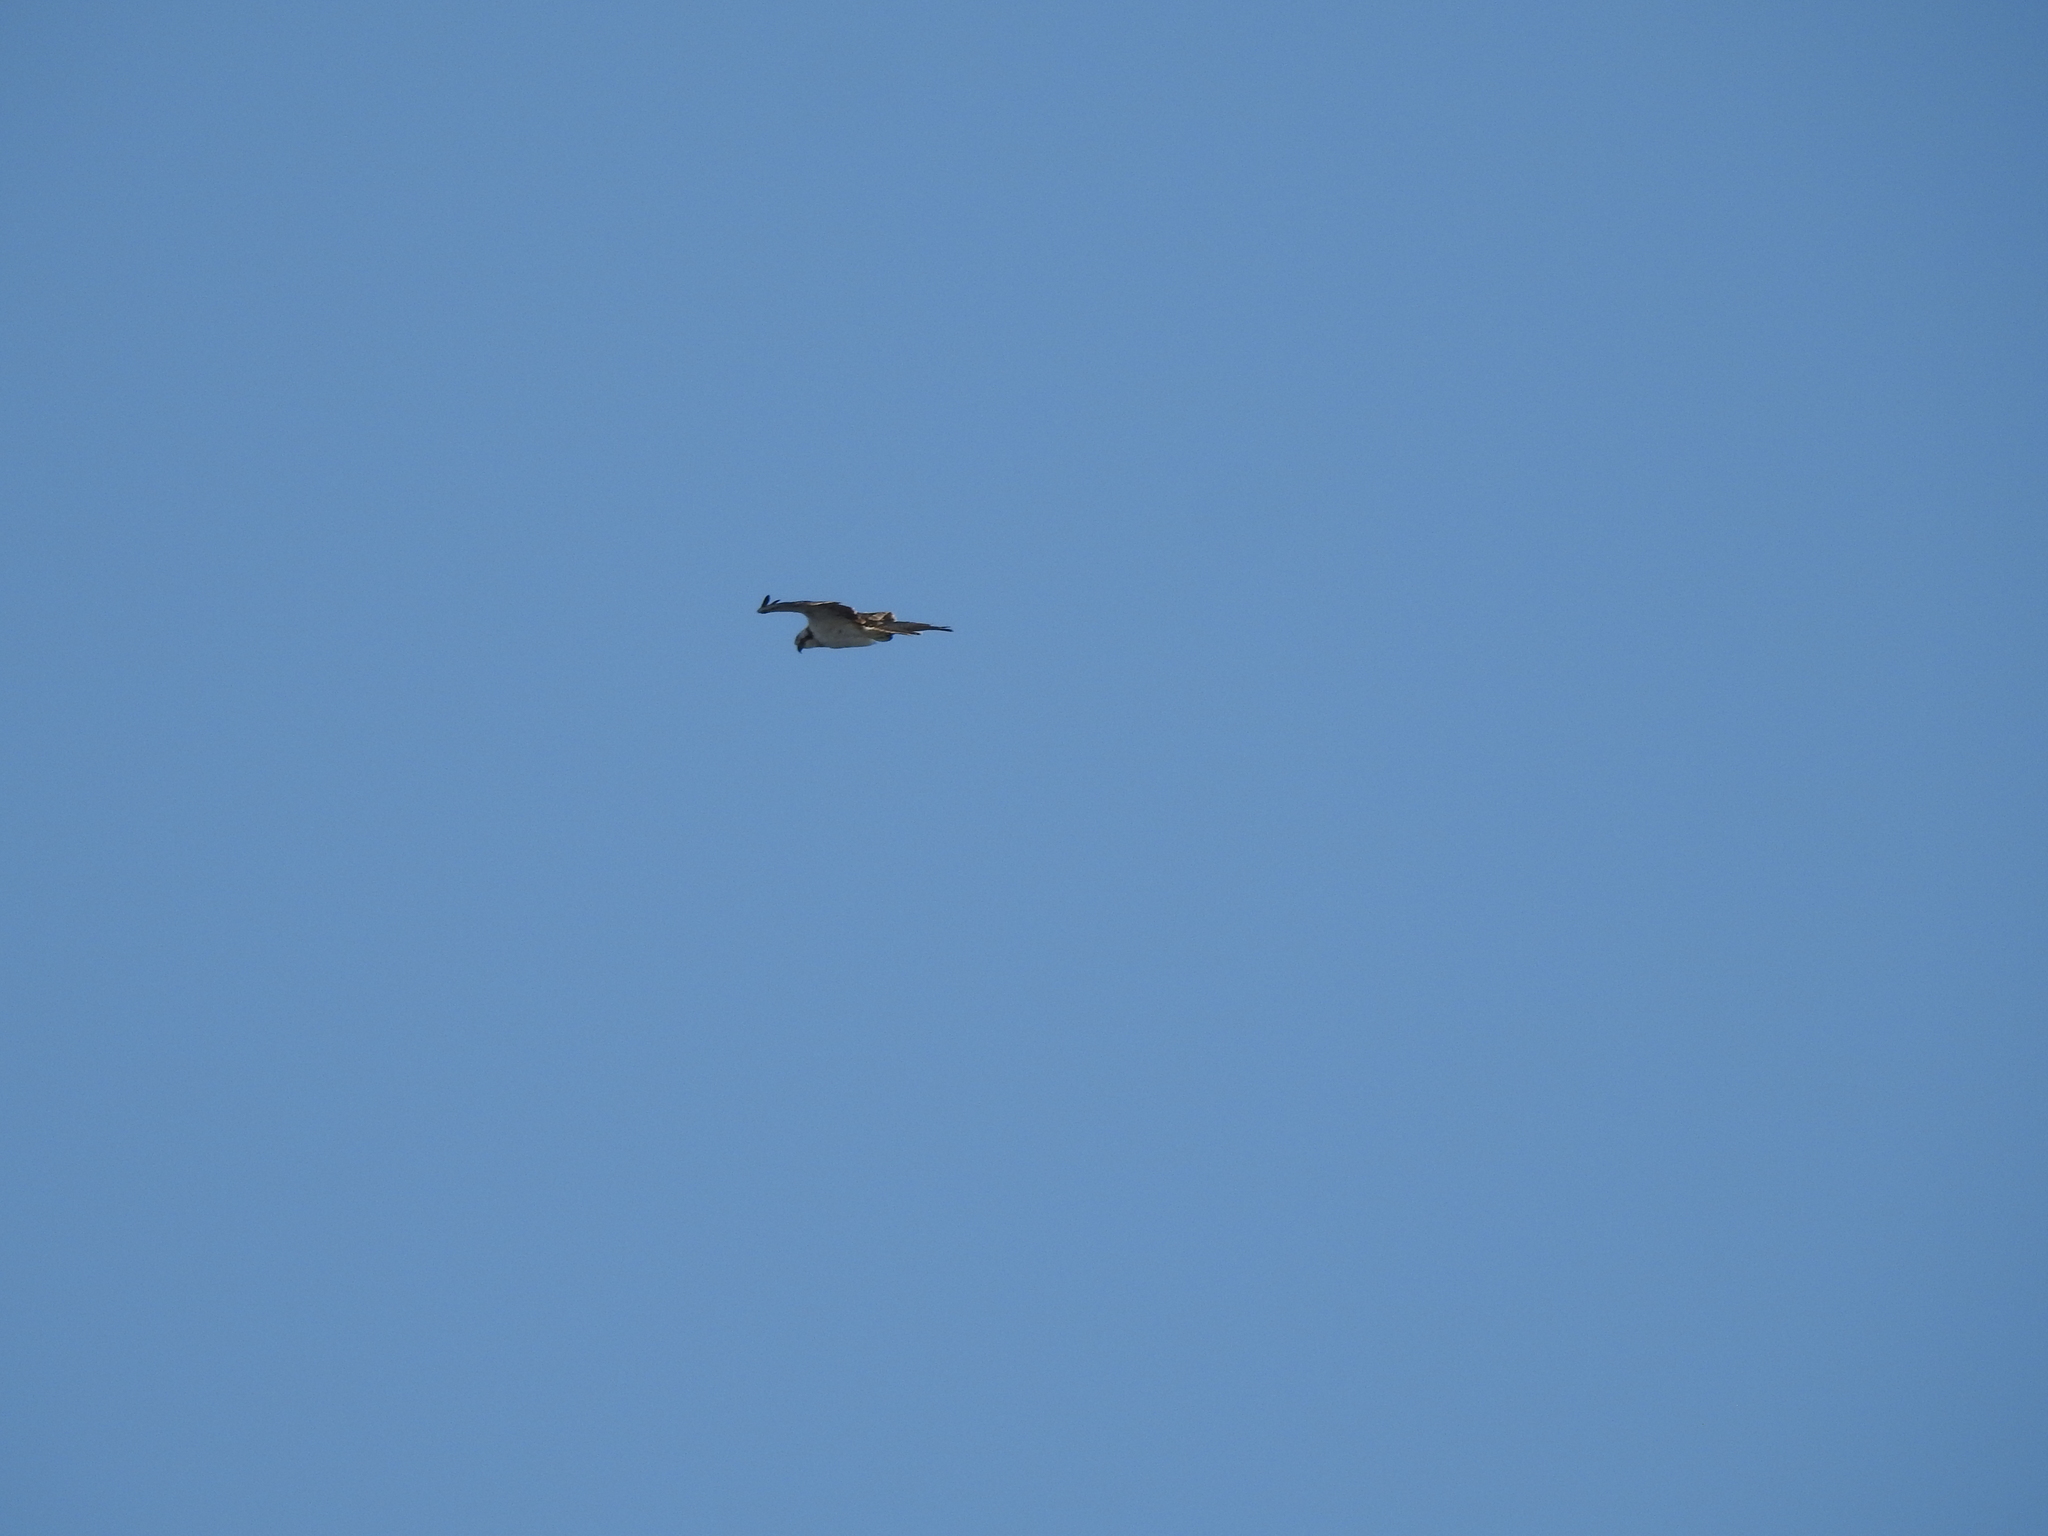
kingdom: Animalia
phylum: Chordata
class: Aves
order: Accipitriformes
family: Pandionidae
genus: Pandion
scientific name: Pandion haliaetus
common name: Osprey
